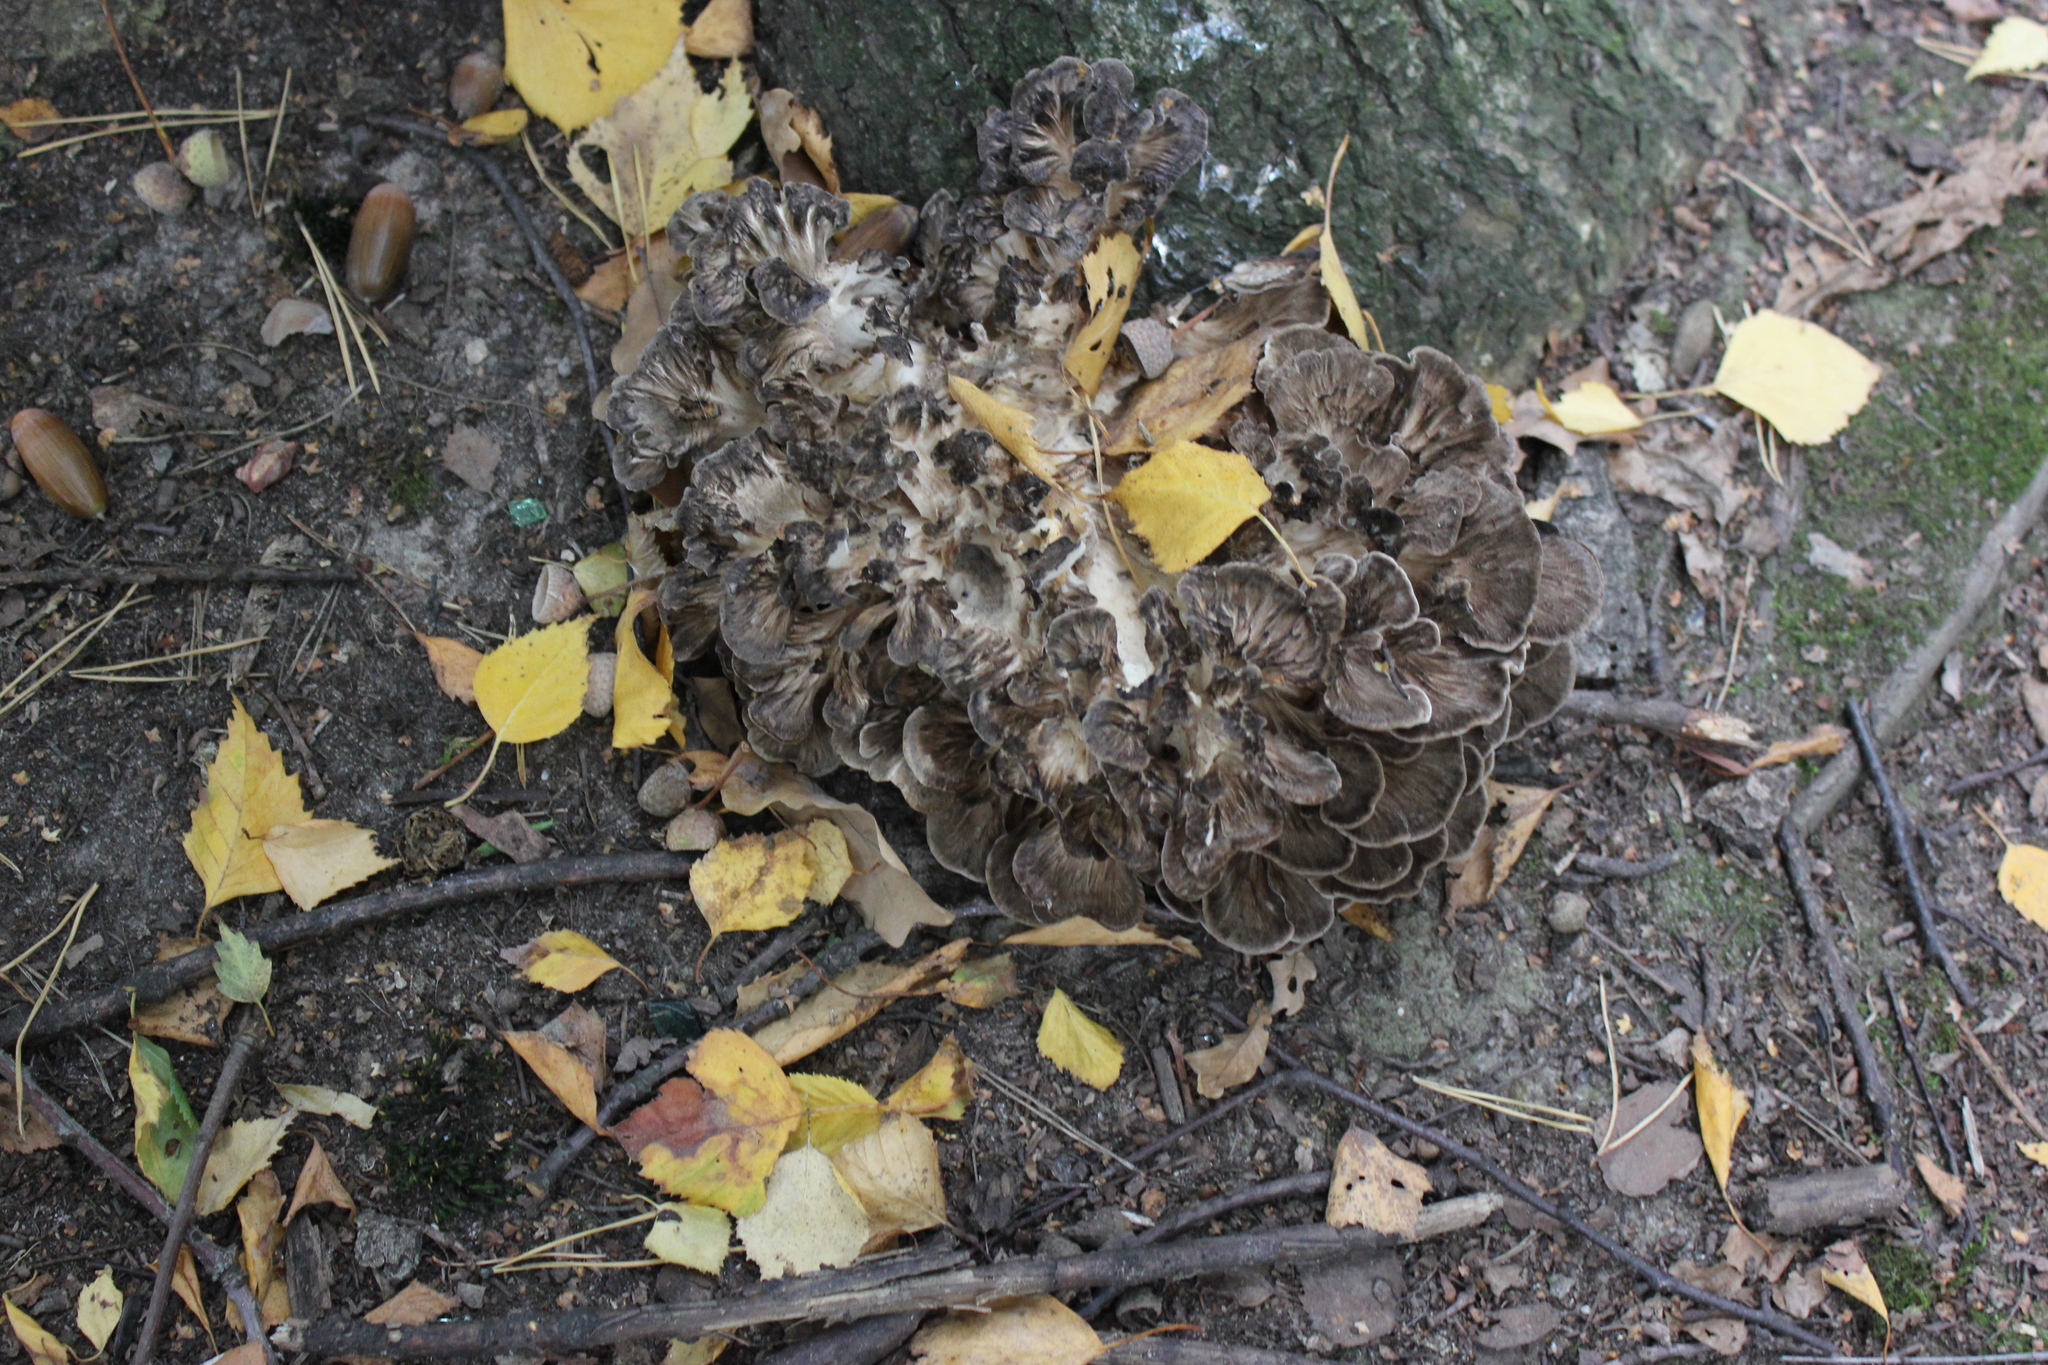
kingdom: Fungi
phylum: Basidiomycota
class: Agaricomycetes
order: Polyporales
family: Grifolaceae
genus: Grifola
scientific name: Grifola frondosa
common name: Hen of the woods
